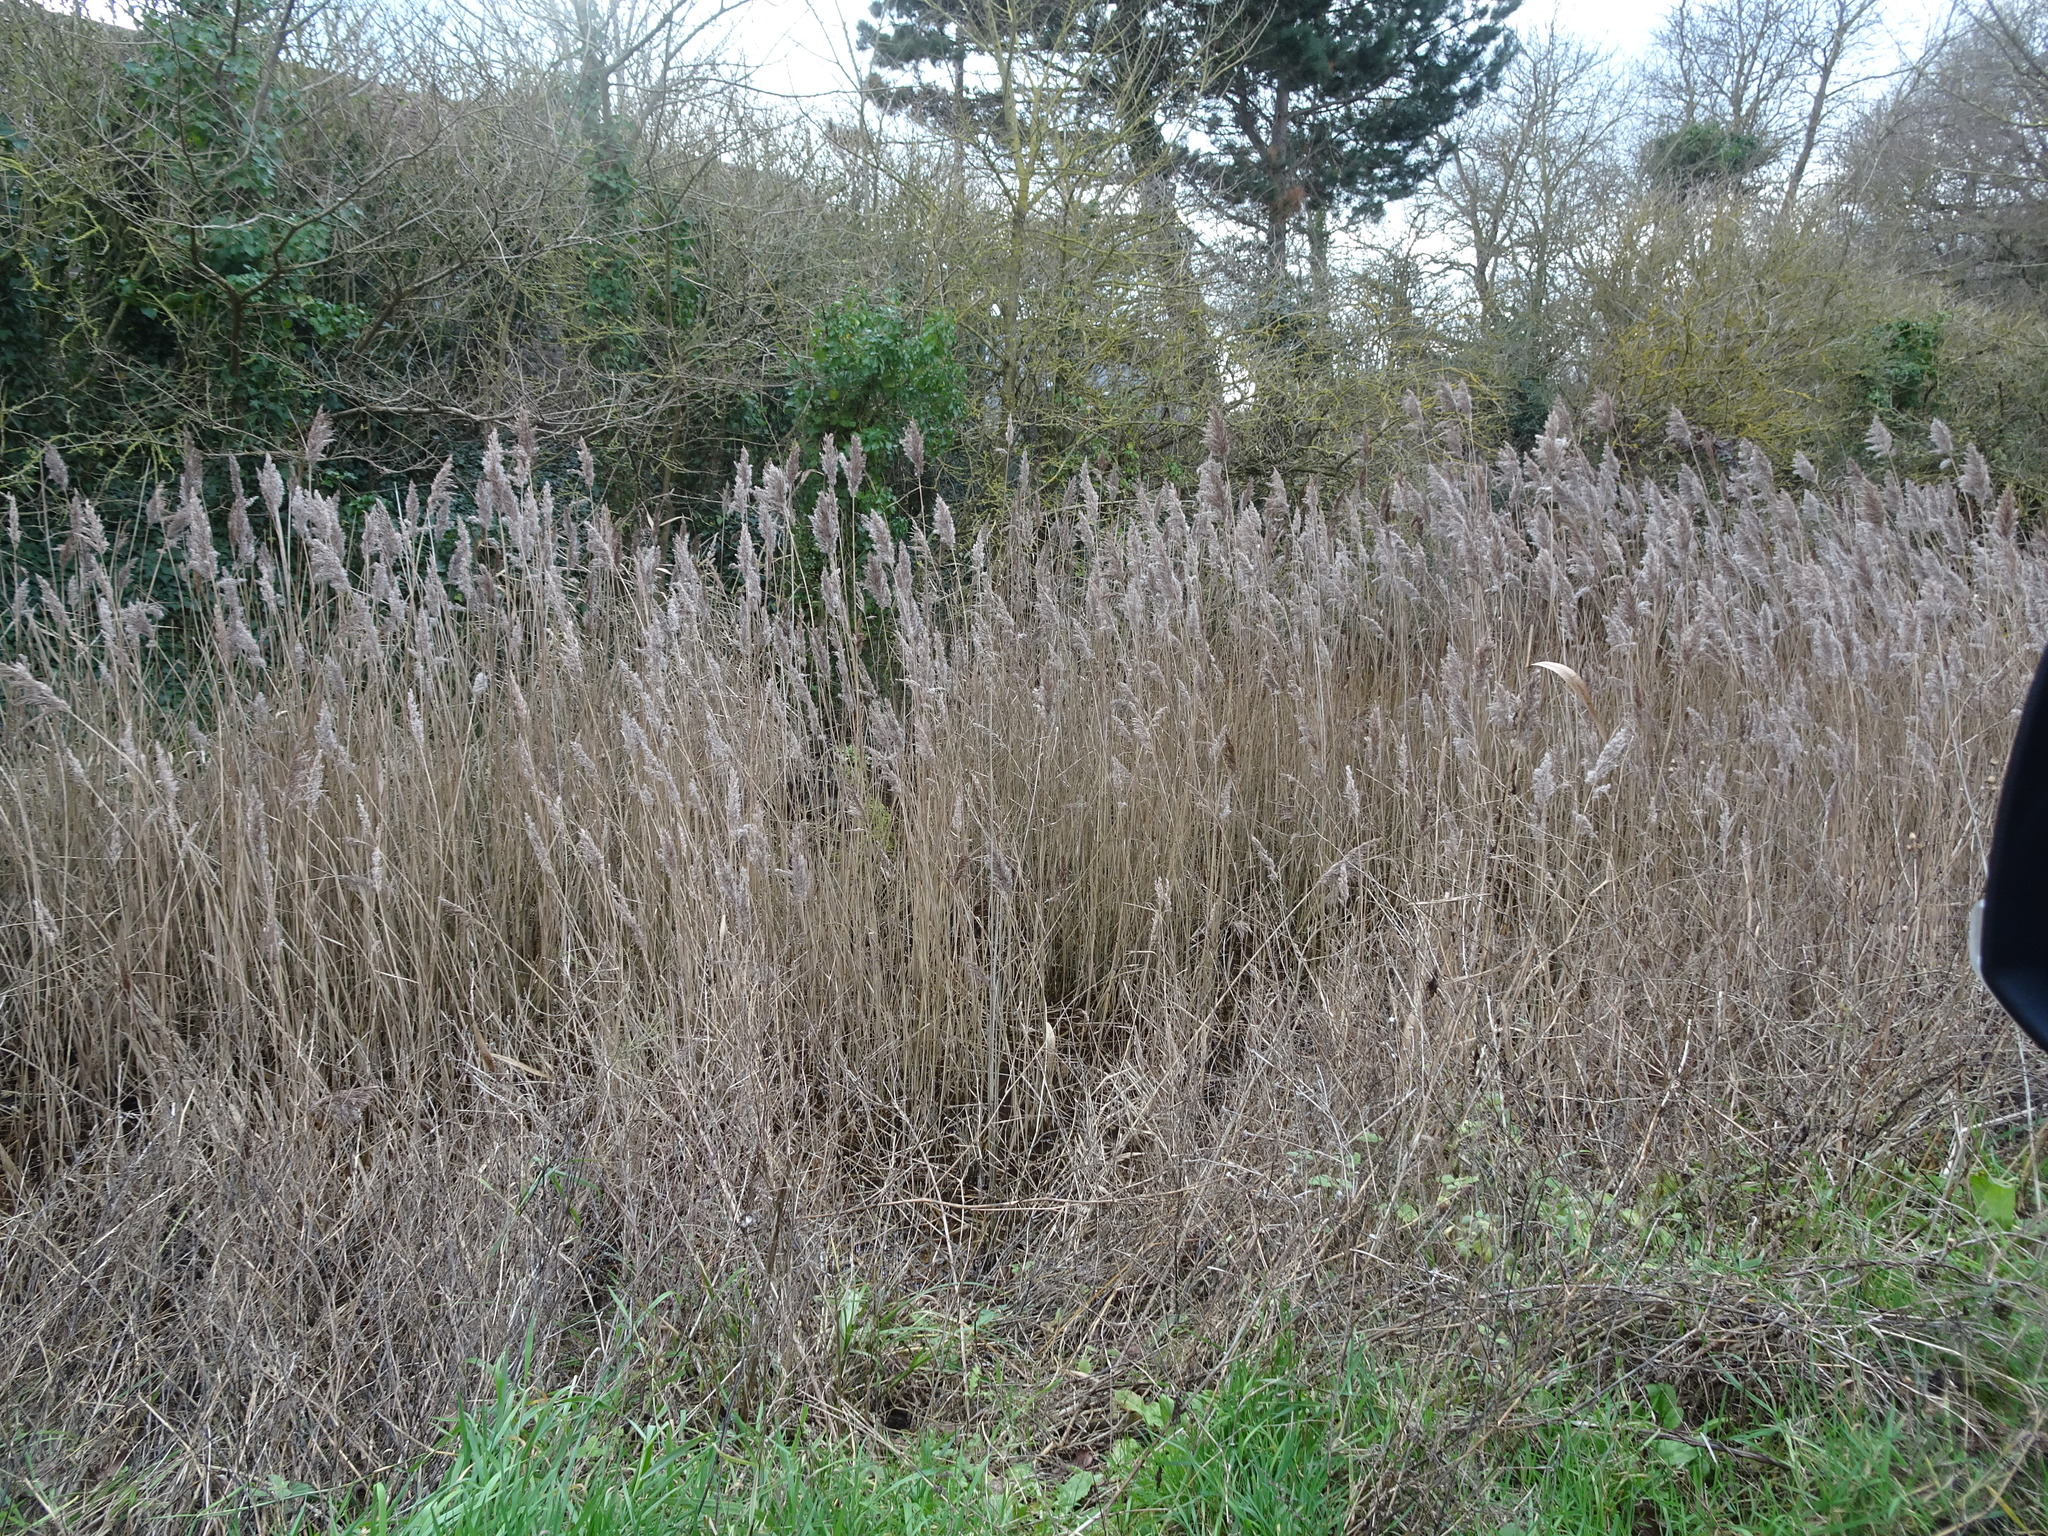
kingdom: Plantae
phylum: Tracheophyta
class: Liliopsida
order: Poales
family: Poaceae
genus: Phragmites
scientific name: Phragmites australis
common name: Common reed
